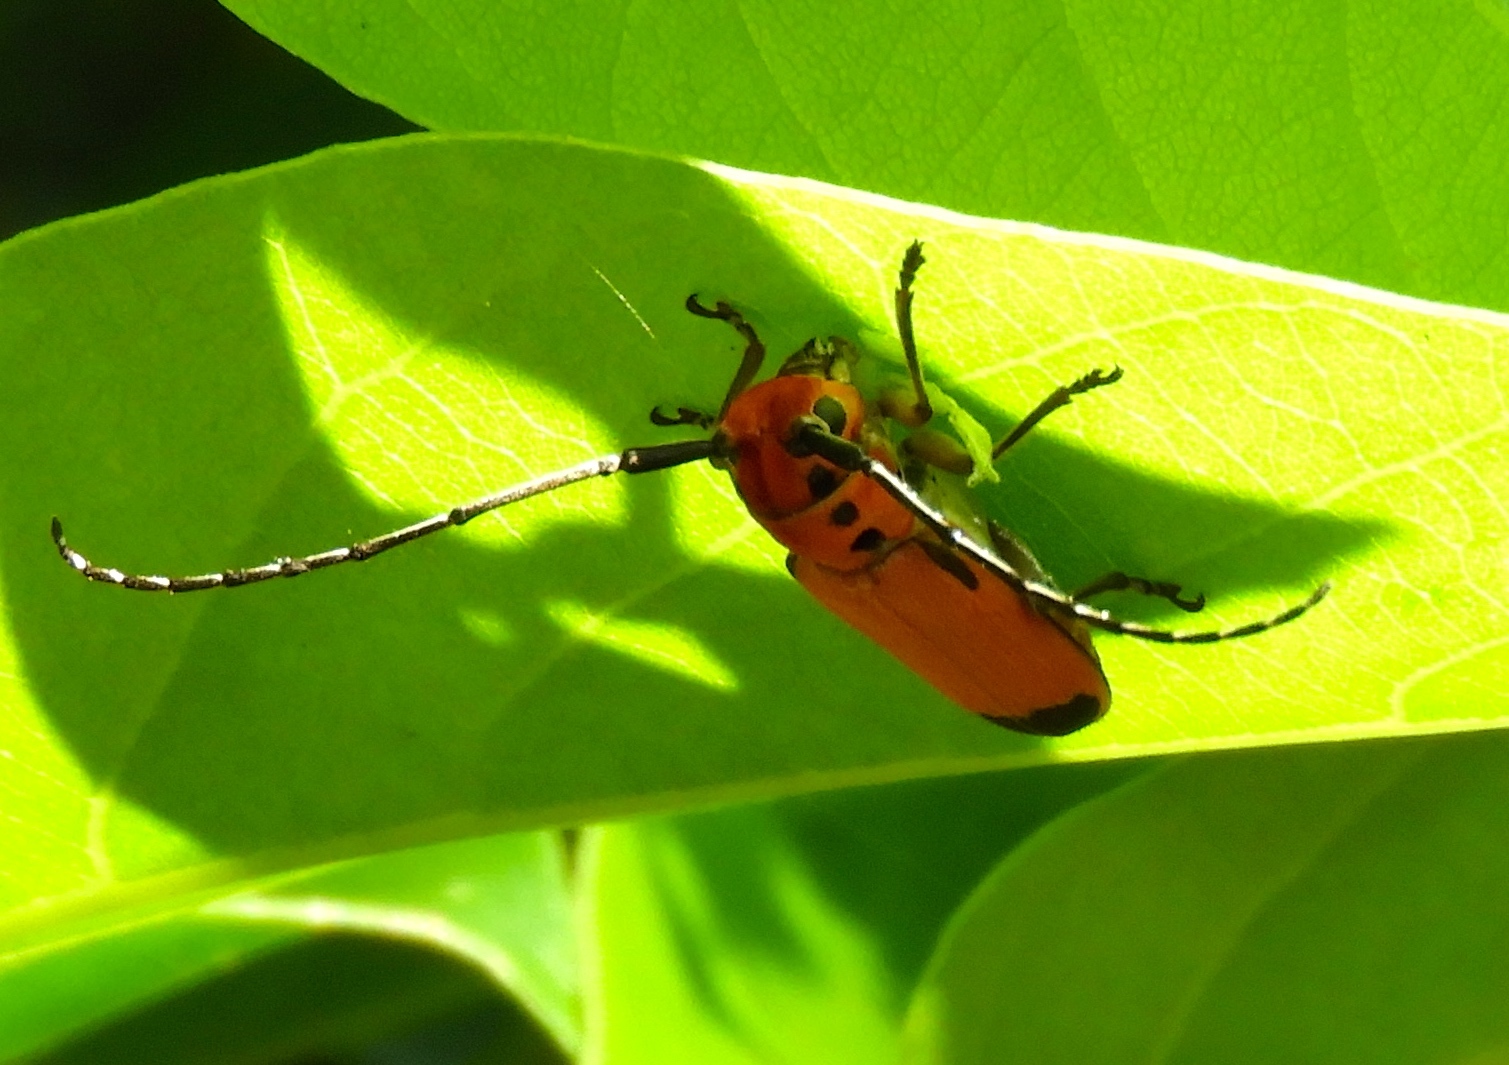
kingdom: Animalia
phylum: Arthropoda
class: Insecta
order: Coleoptera
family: Cerambycidae
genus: Essostrutha
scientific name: Essostrutha laeta
